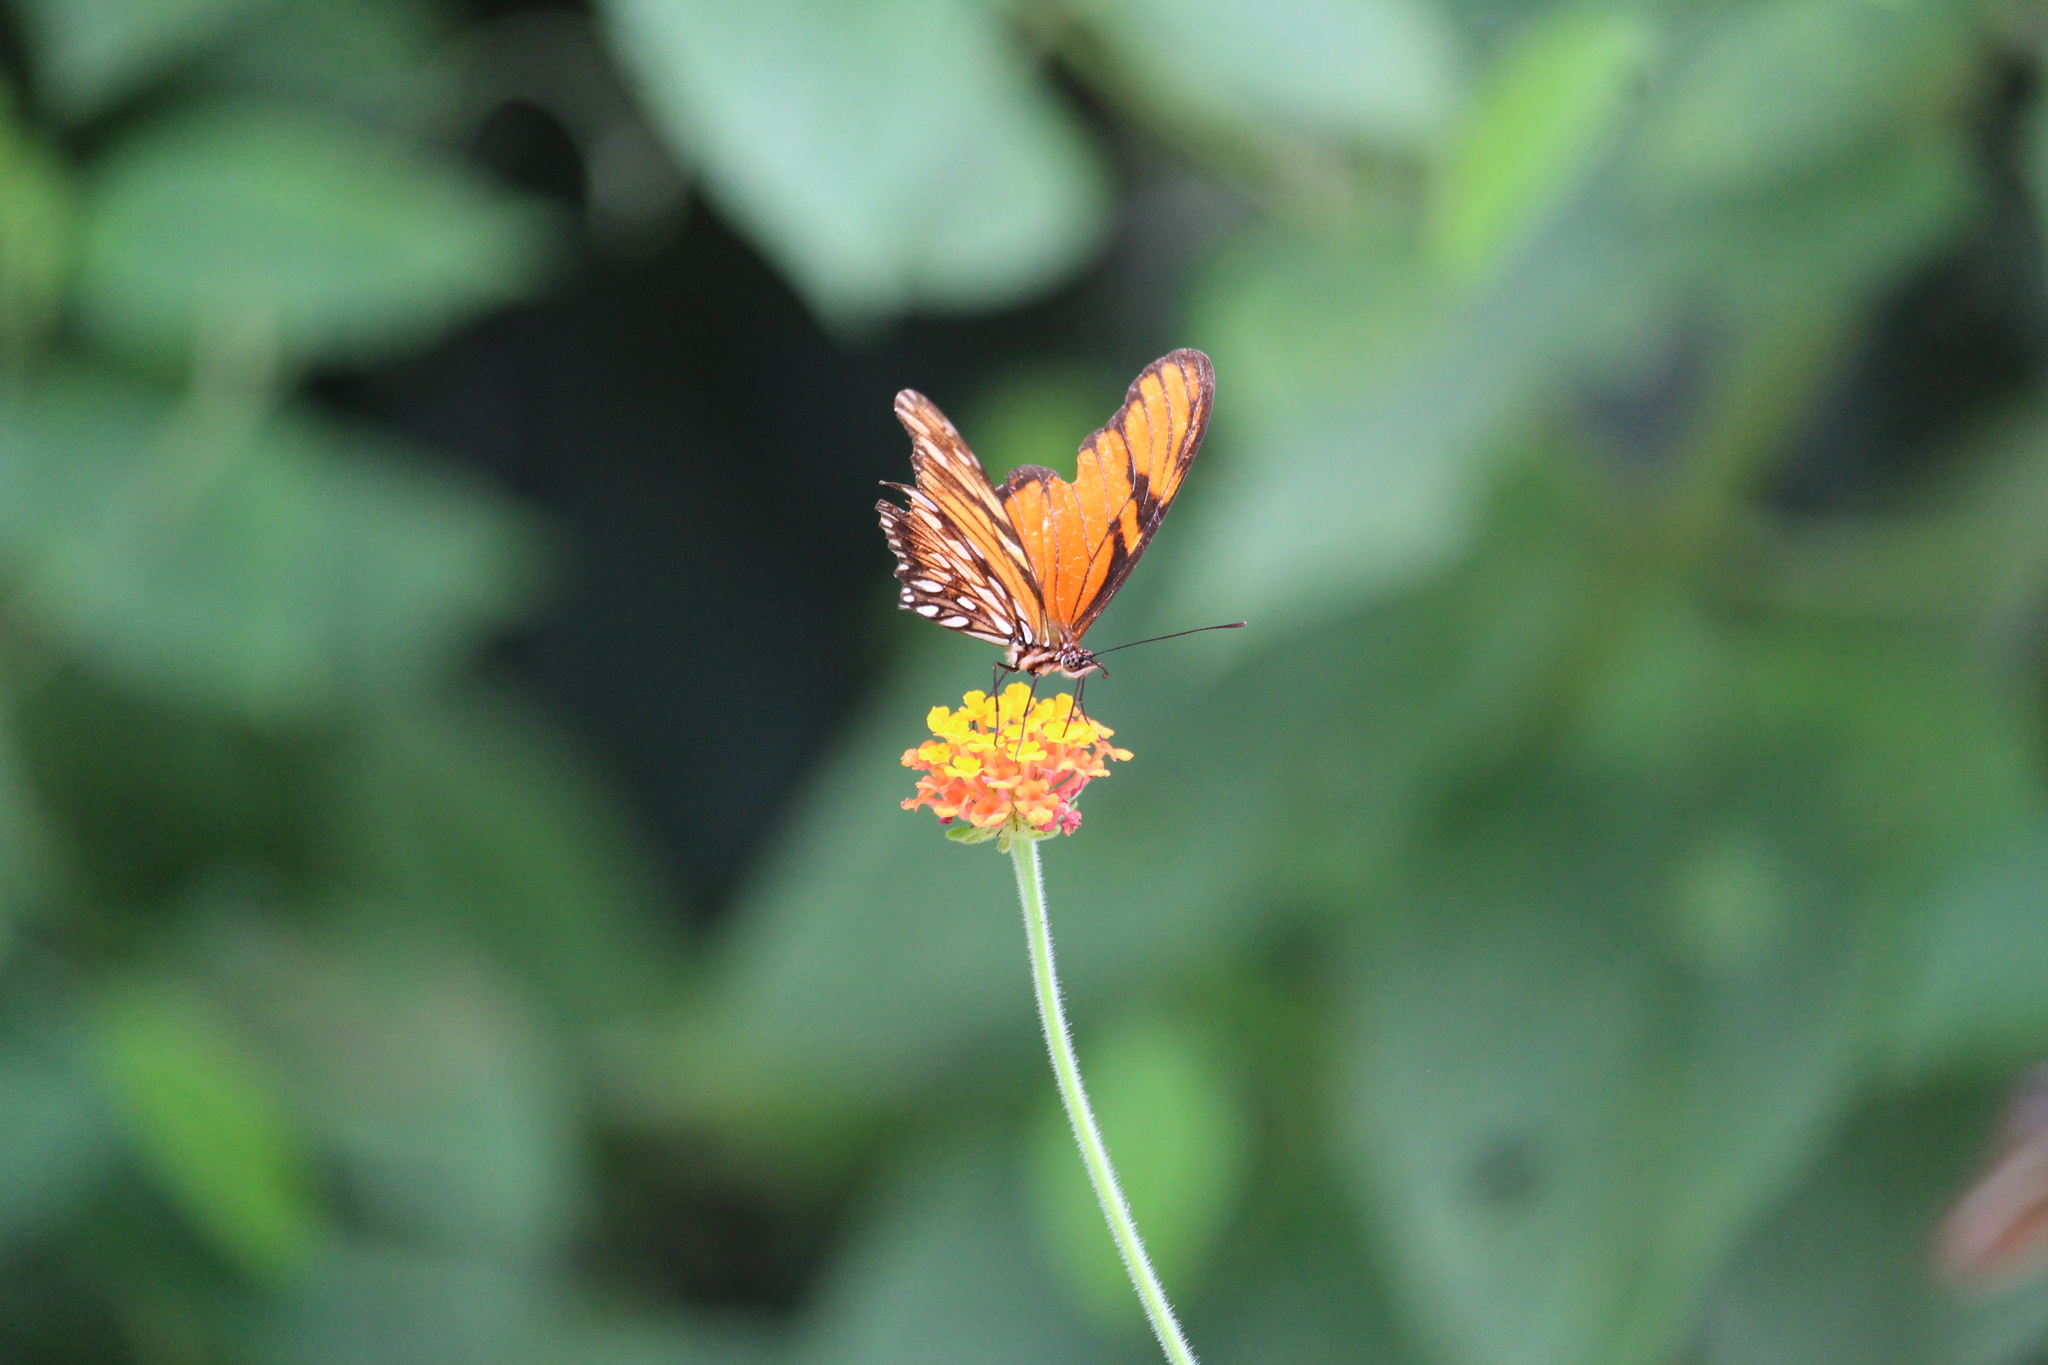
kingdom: Animalia
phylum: Arthropoda
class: Insecta
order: Lepidoptera
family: Nymphalidae
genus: Dione
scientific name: Dione juno
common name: Juno silverspot
